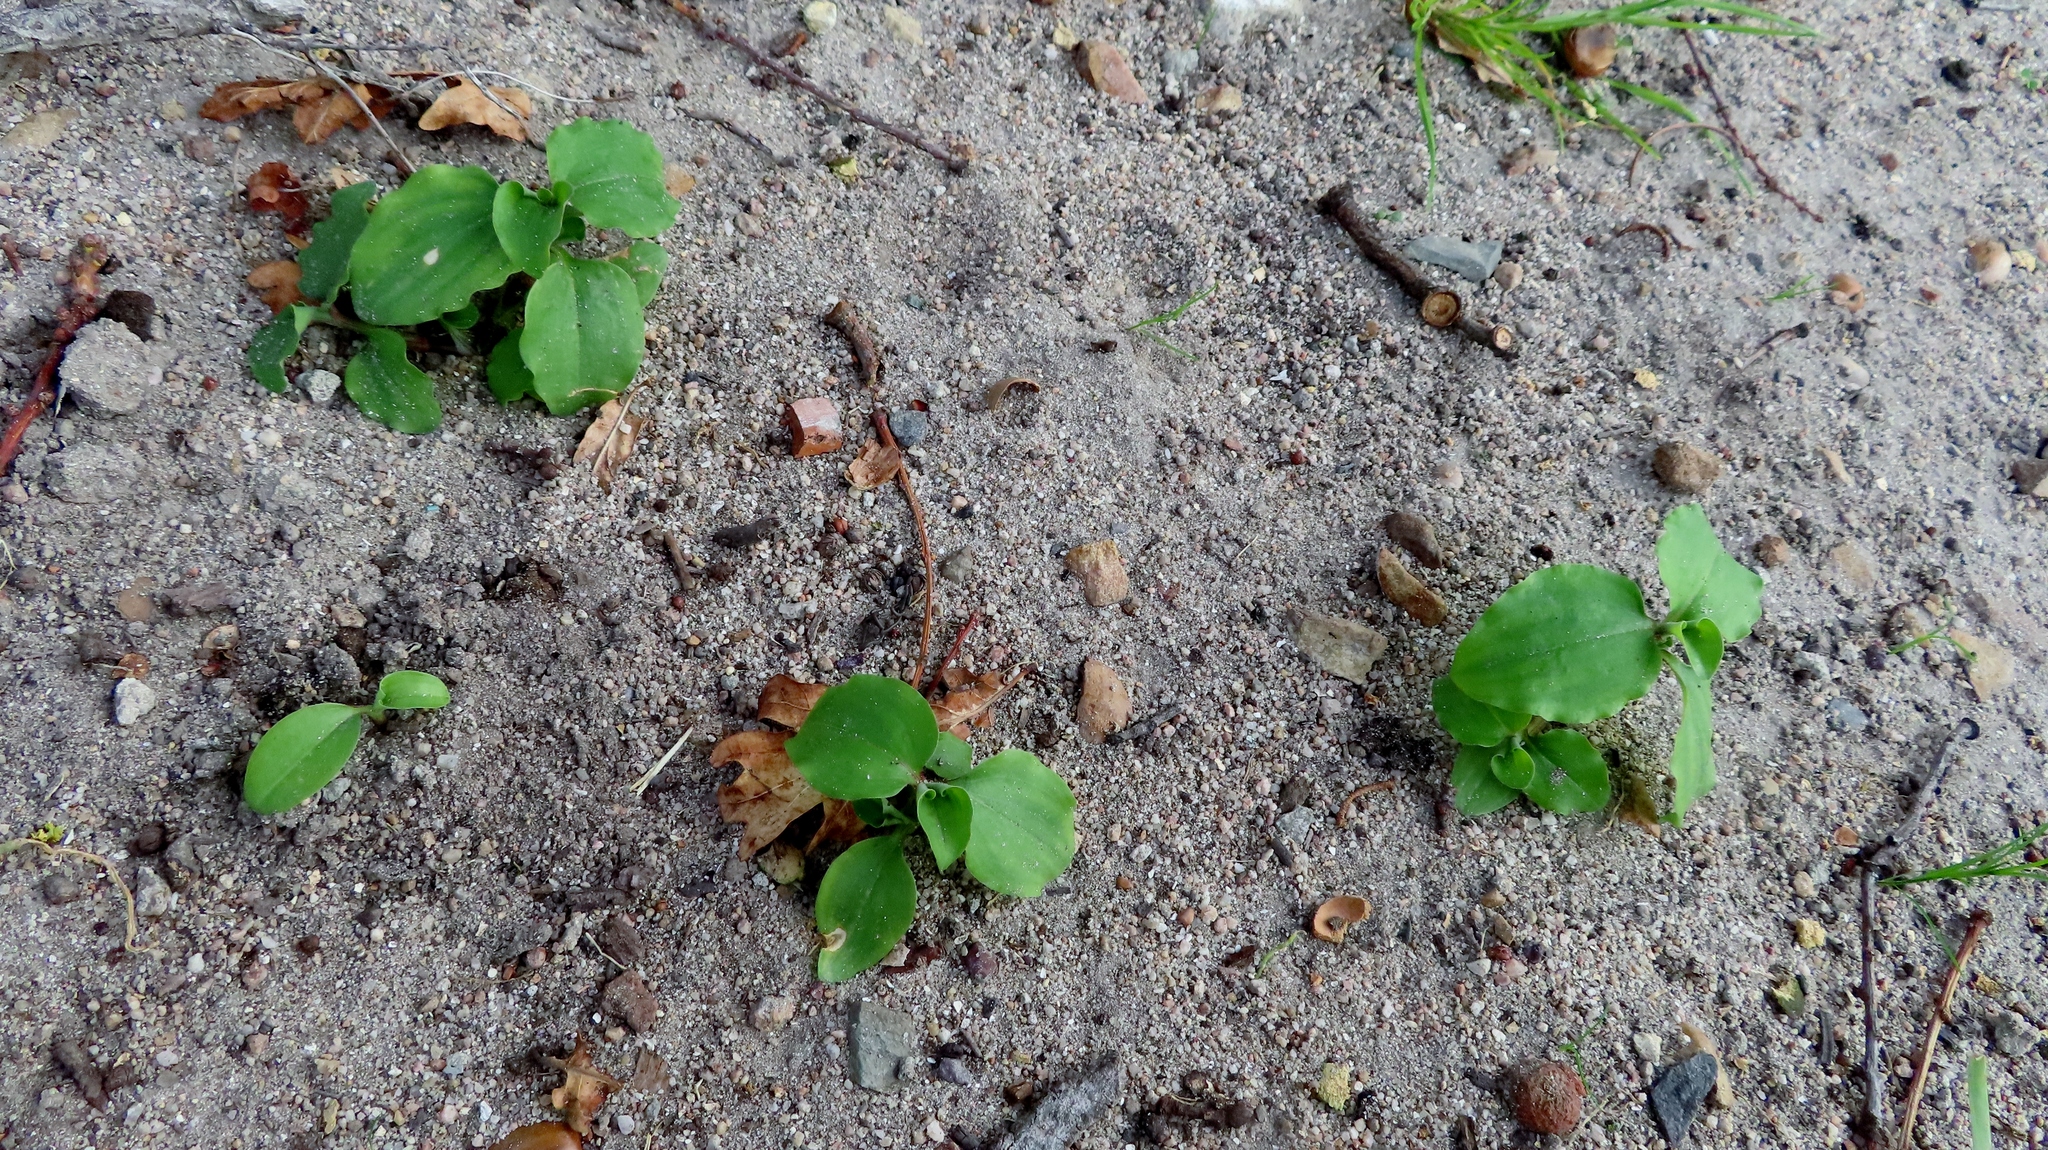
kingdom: Plantae
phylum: Tracheophyta
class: Liliopsida
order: Commelinales
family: Commelinaceae
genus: Commelina
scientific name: Commelina benghalensis
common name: Jio
